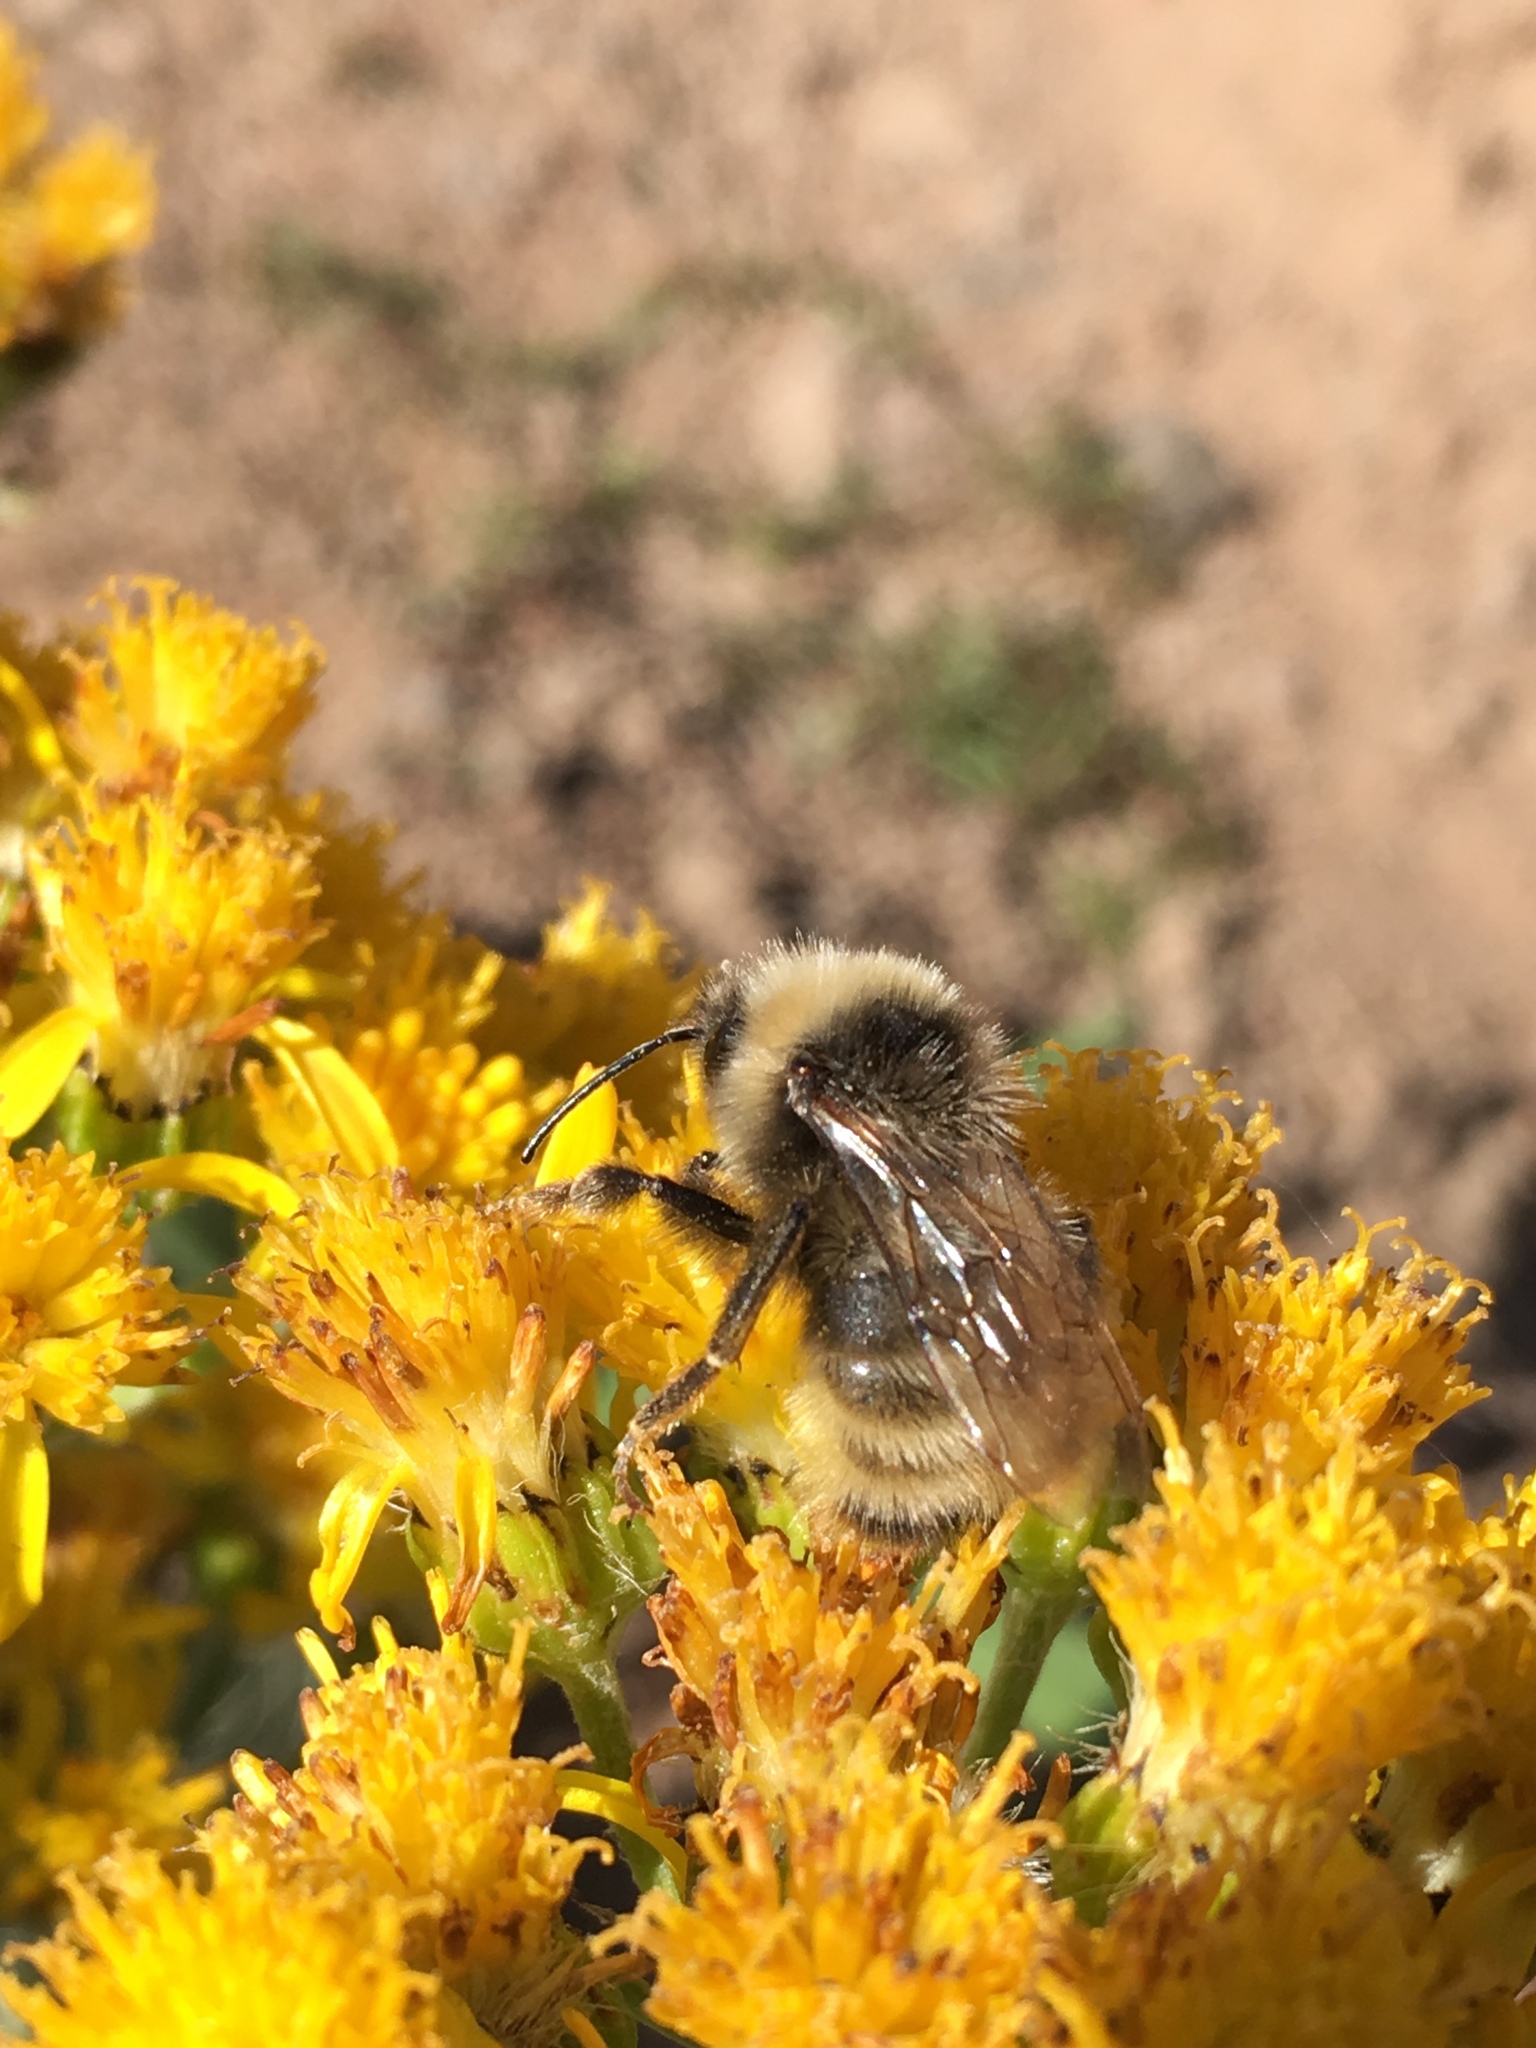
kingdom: Animalia
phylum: Arthropoda
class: Insecta
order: Hymenoptera
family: Apidae
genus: Bombus
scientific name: Bombus californicus
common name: California bumble bee
